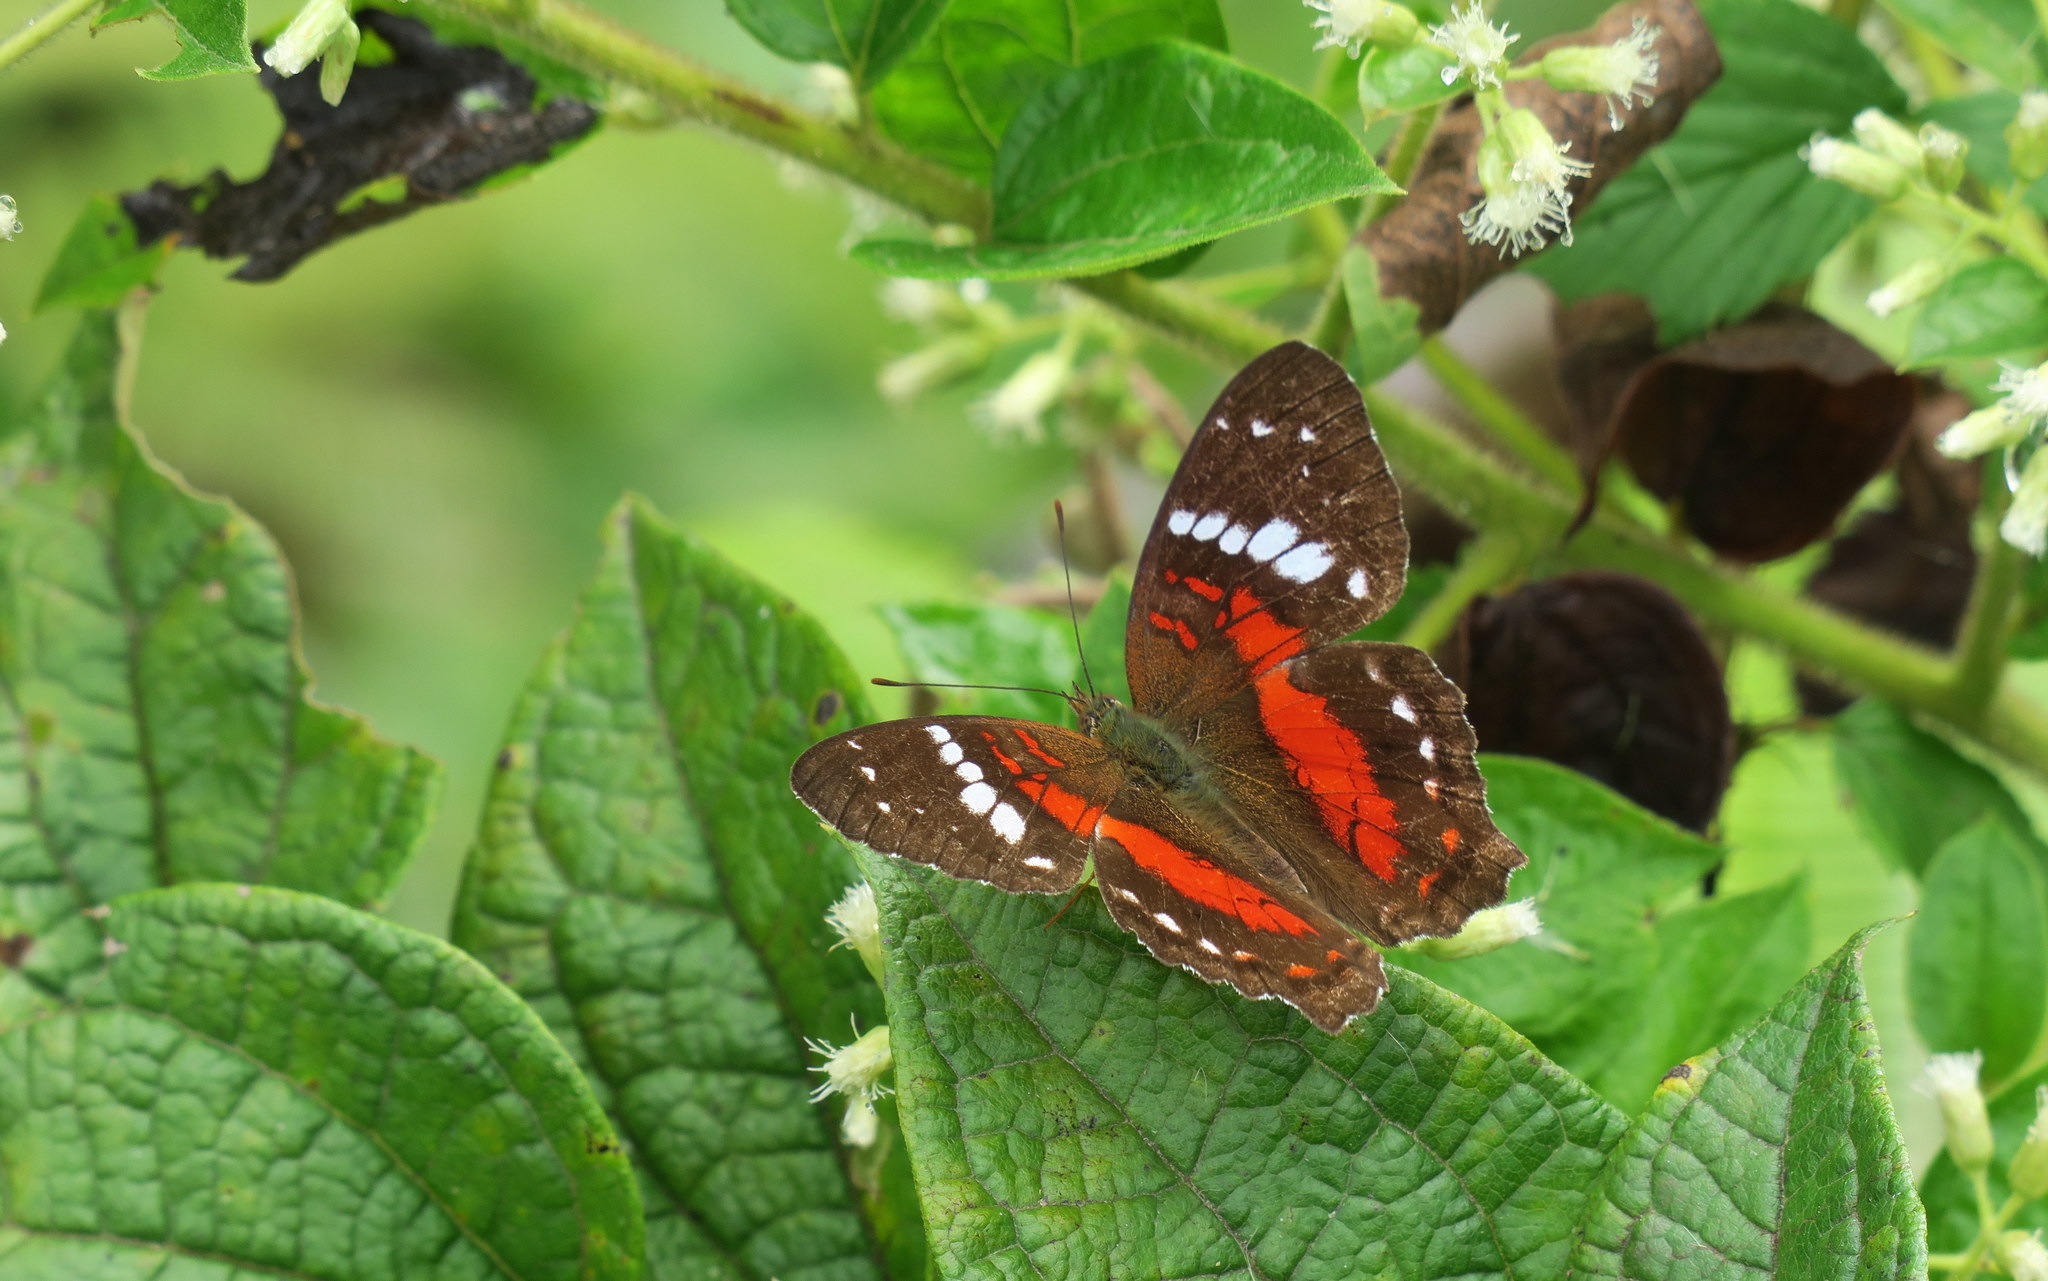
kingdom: Animalia
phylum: Arthropoda
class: Insecta
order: Lepidoptera
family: Nymphalidae
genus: Anartia
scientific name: Anartia amathea
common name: Red peacock
